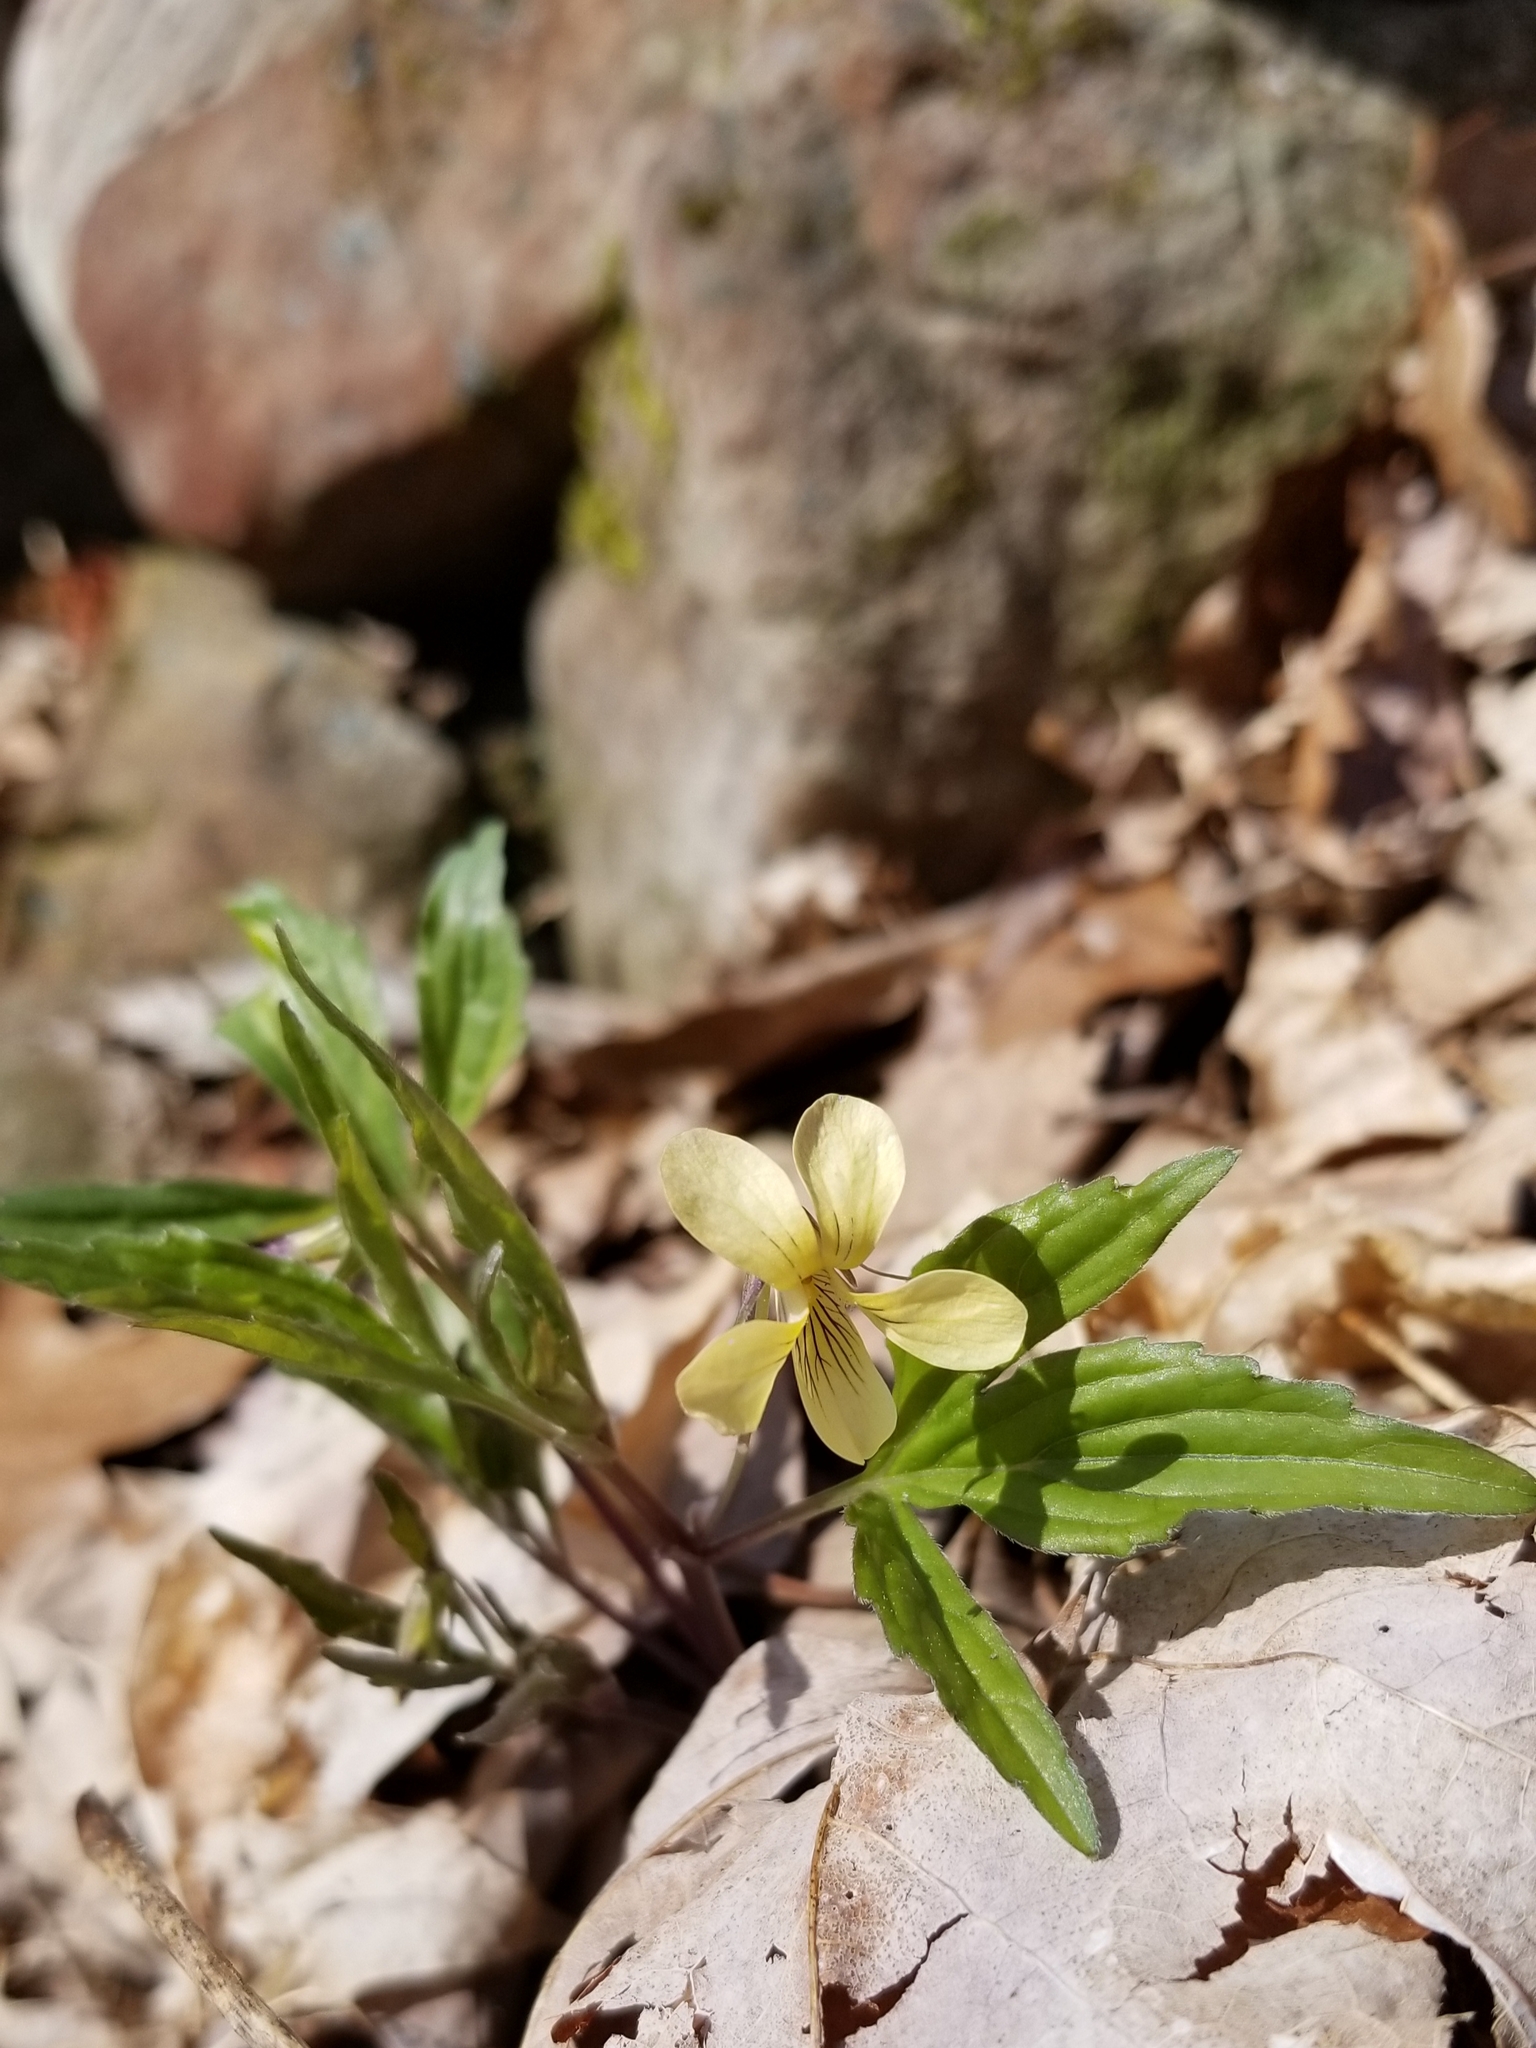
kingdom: Plantae
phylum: Tracheophyta
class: Magnoliopsida
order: Malpighiales
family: Violaceae
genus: Viola
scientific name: Viola tripartita
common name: Three-part violet
